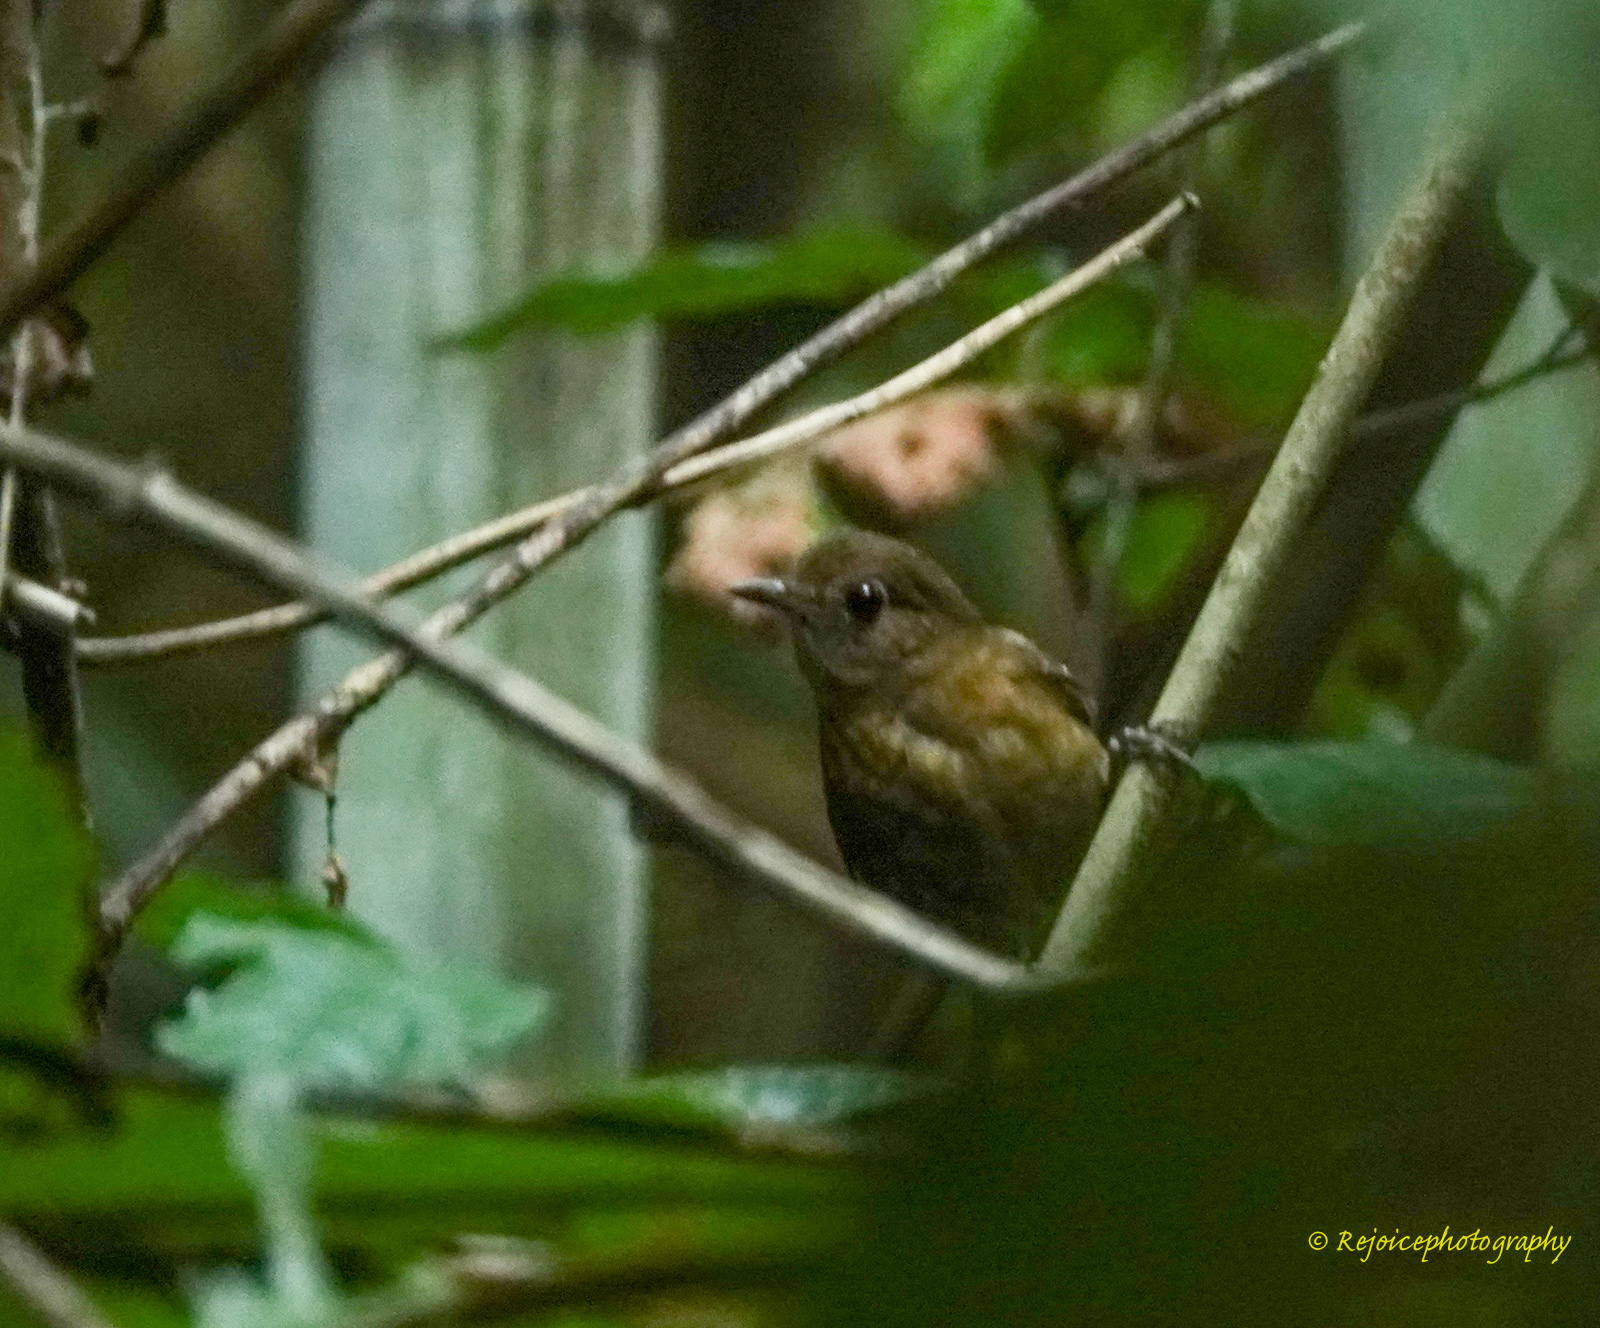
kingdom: Animalia
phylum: Chordata
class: Aves
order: Passeriformes
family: Muscicapidae
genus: Myiomela
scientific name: Myiomela leucura
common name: White-tailed robin
